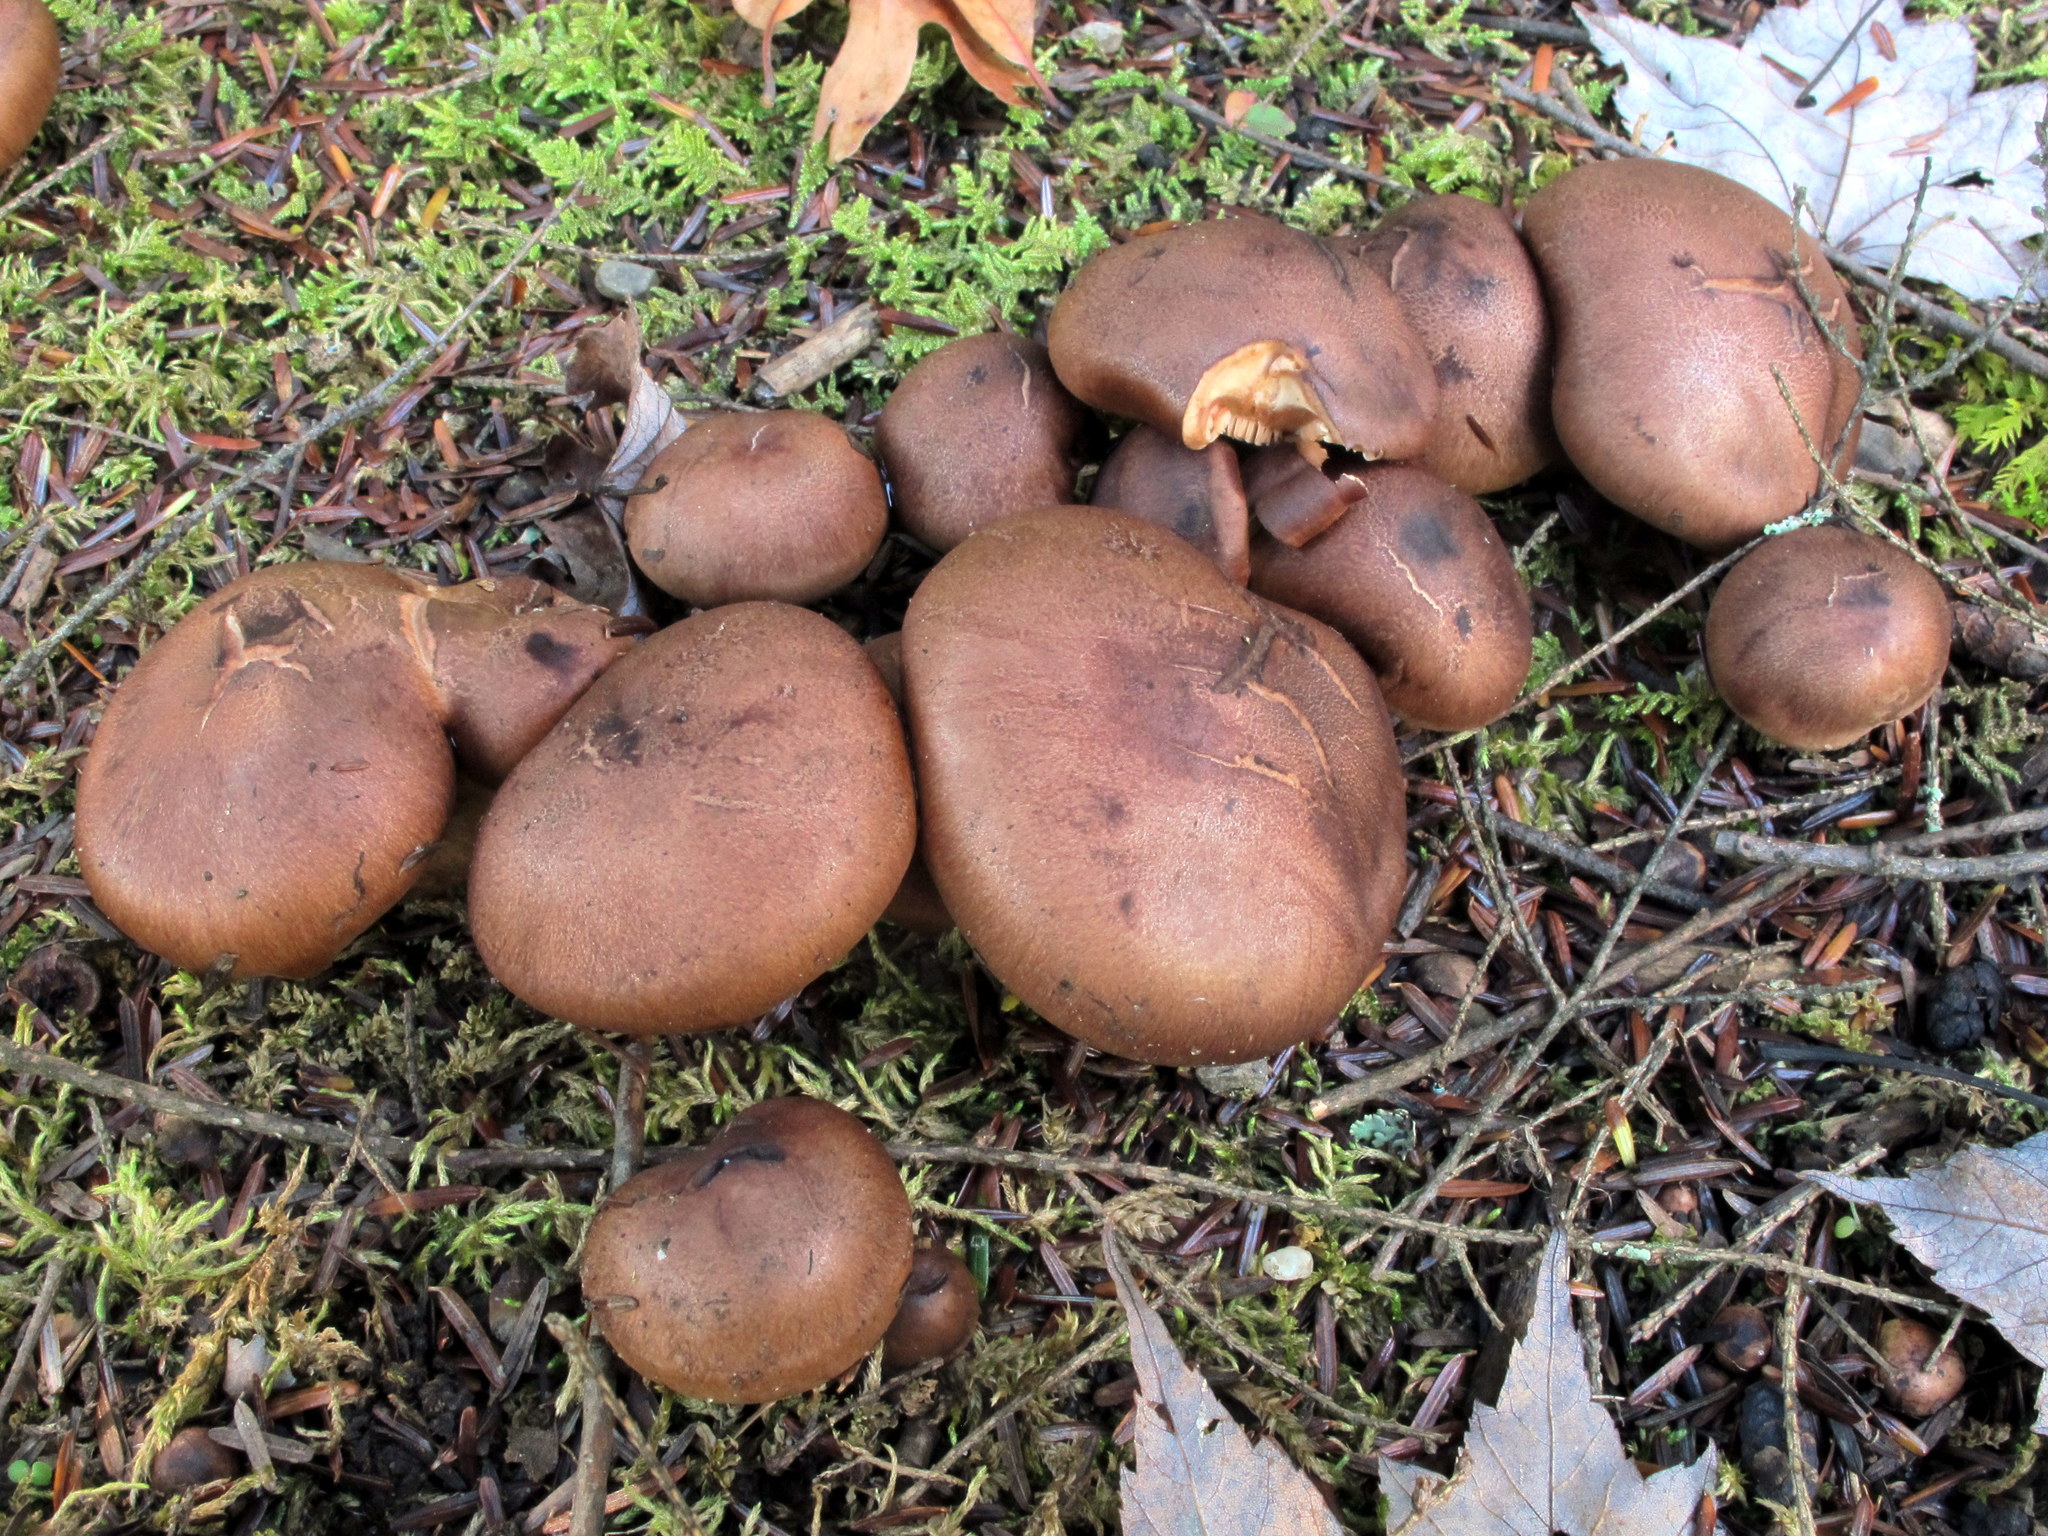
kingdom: Fungi
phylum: Basidiomycota
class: Agaricomycetes
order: Agaricales
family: Tricholomataceae
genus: Tricholoma
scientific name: Tricholoma fulvum
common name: Birch knight
